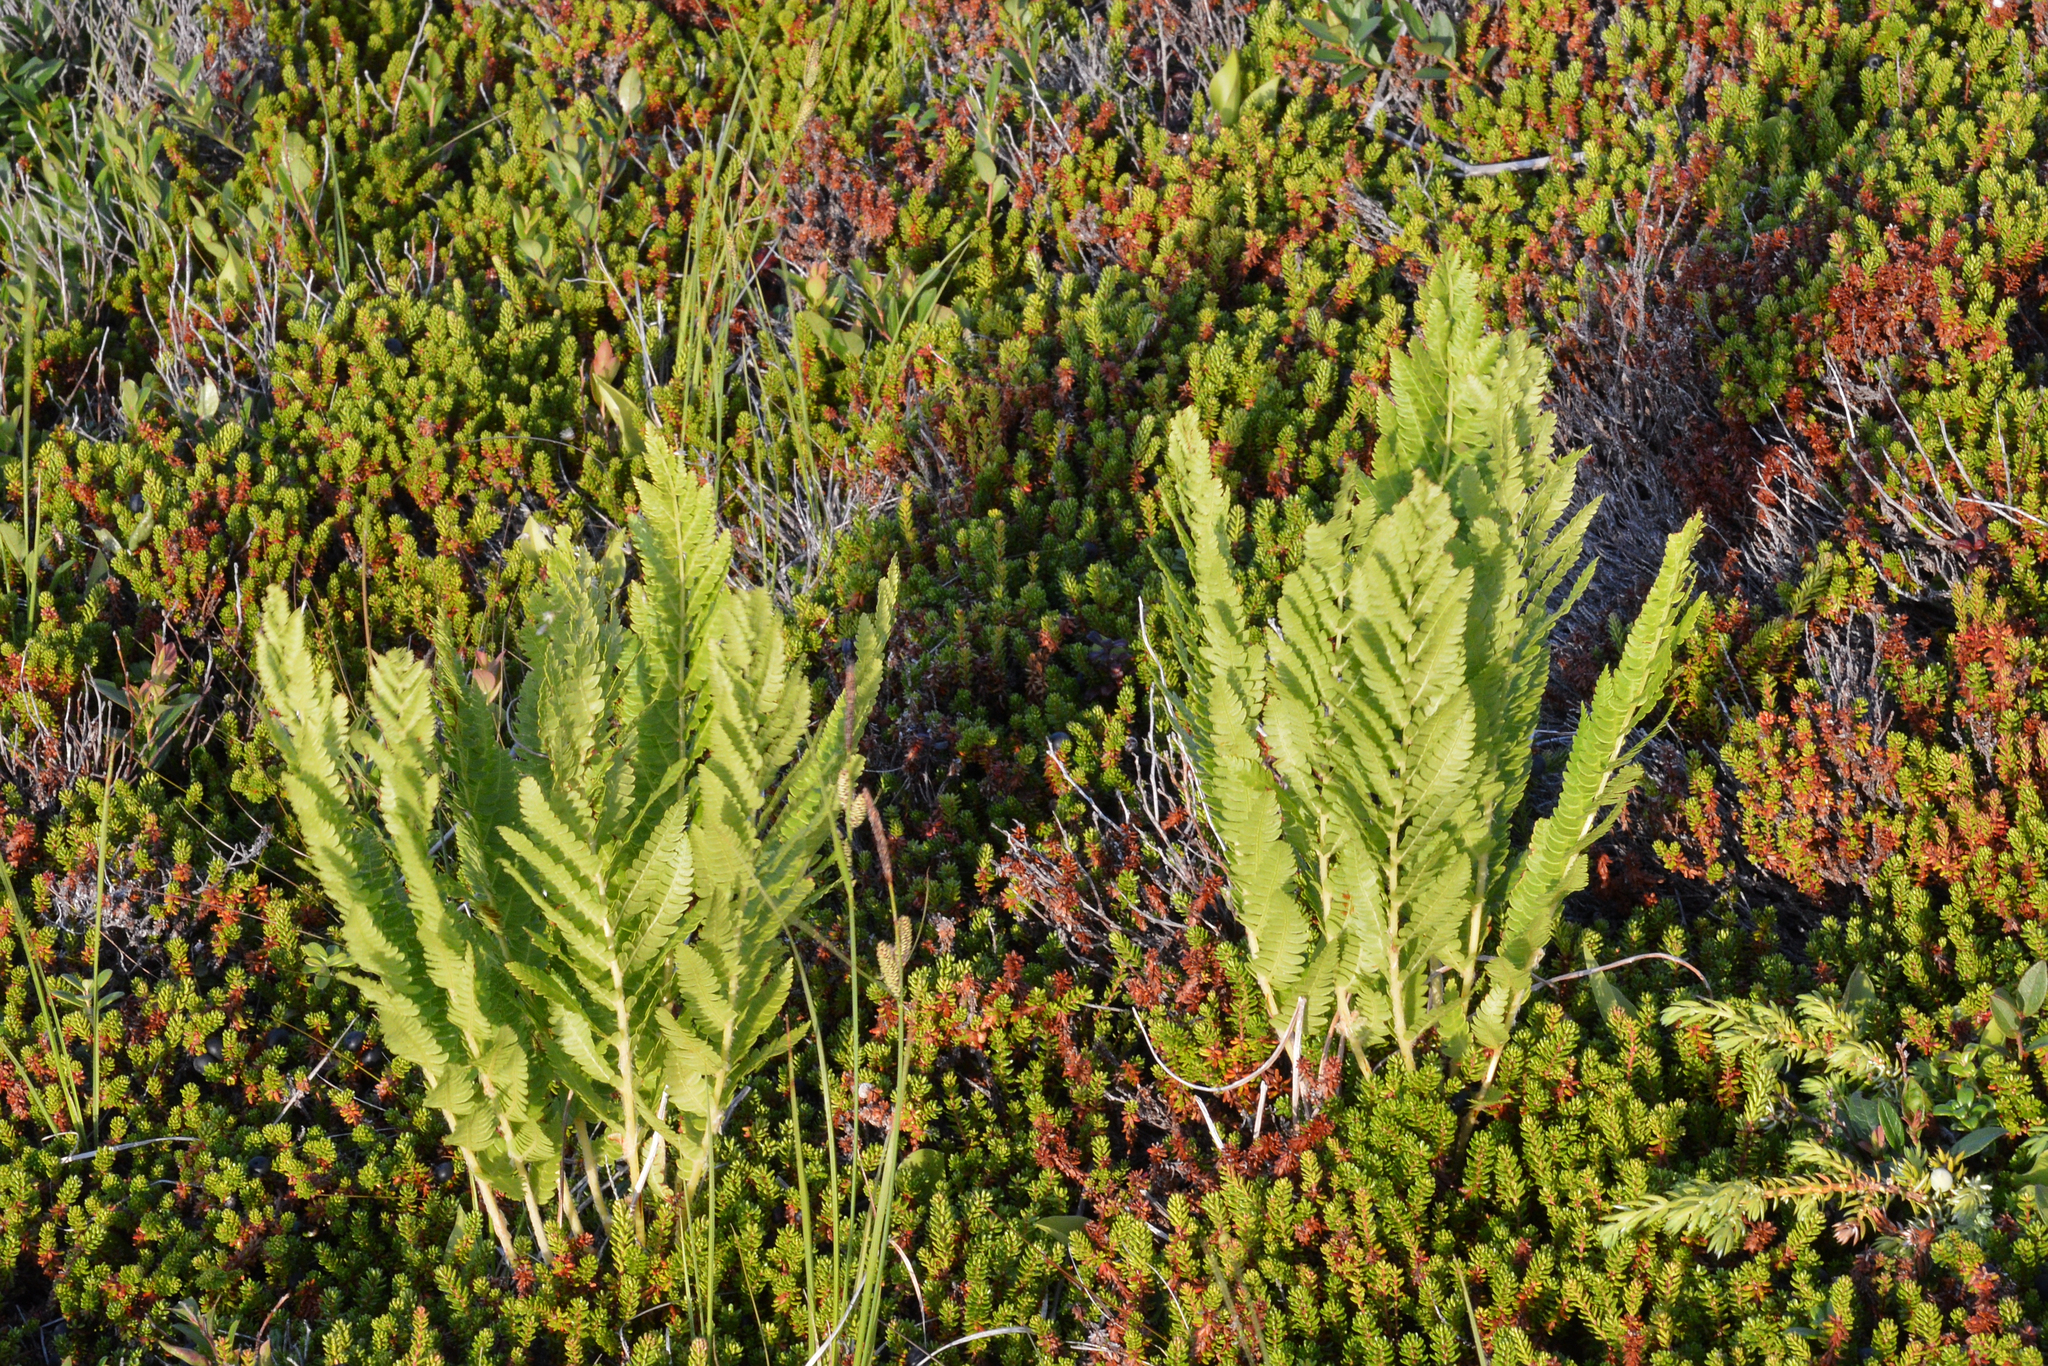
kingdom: Plantae
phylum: Tracheophyta
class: Polypodiopsida
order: Osmundales
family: Osmundaceae
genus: Claytosmunda
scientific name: Claytosmunda claytoniana
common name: Clayton's fern
